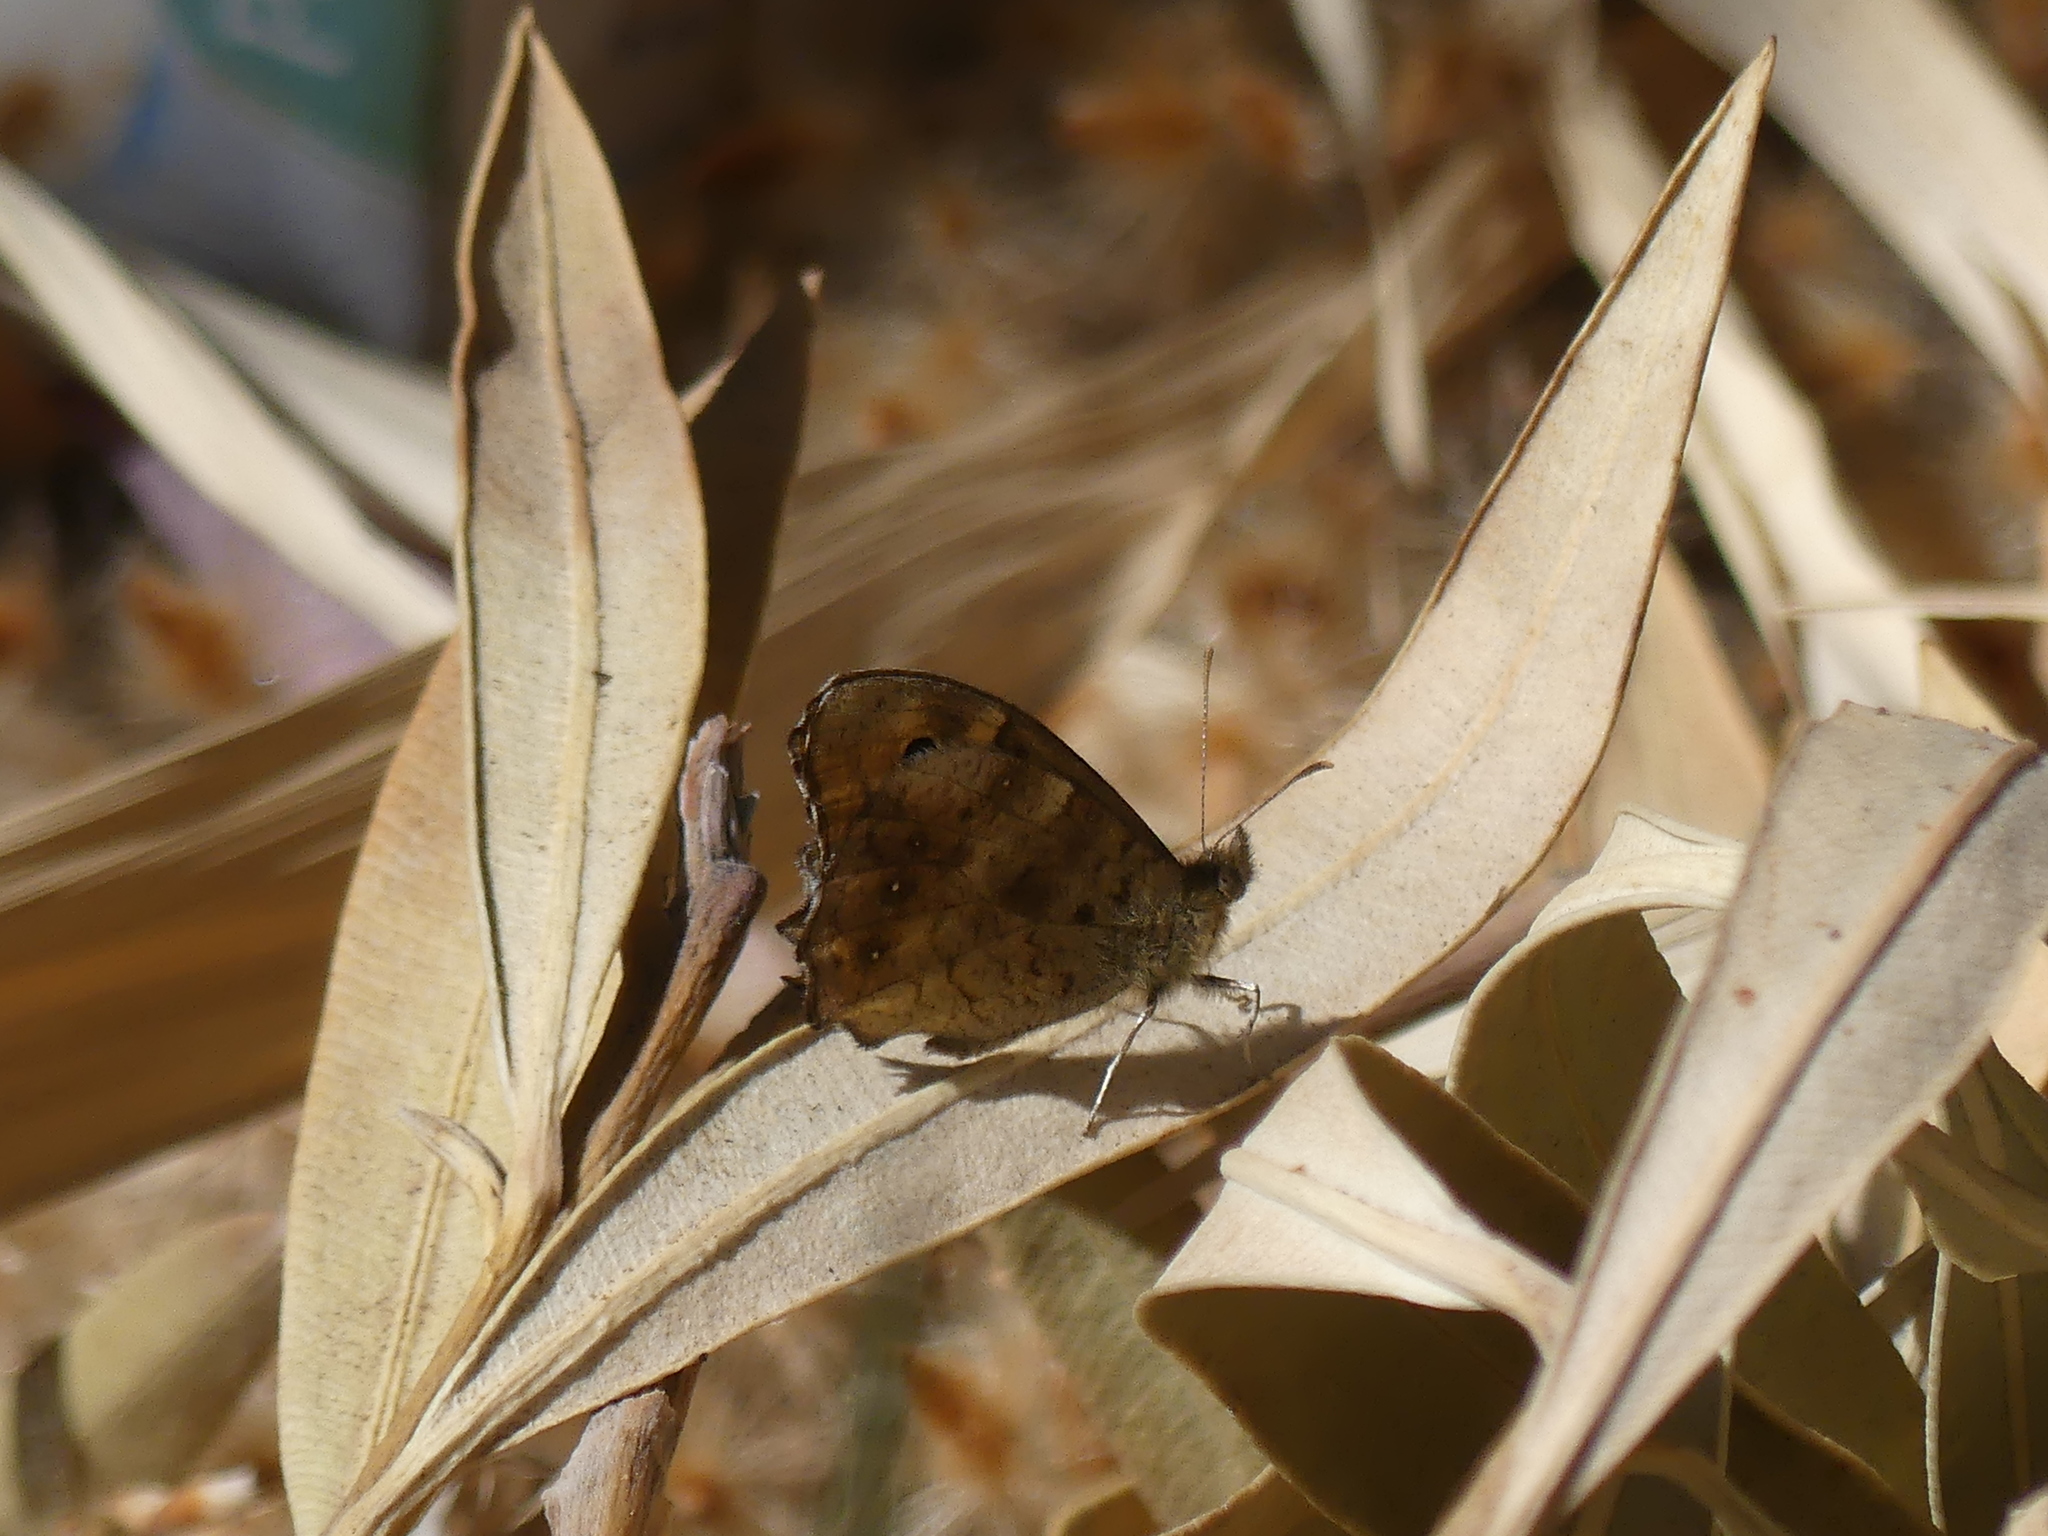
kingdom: Animalia
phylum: Arthropoda
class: Insecta
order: Lepidoptera
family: Nymphalidae
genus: Pararge
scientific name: Pararge aegeria
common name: Speckled wood
